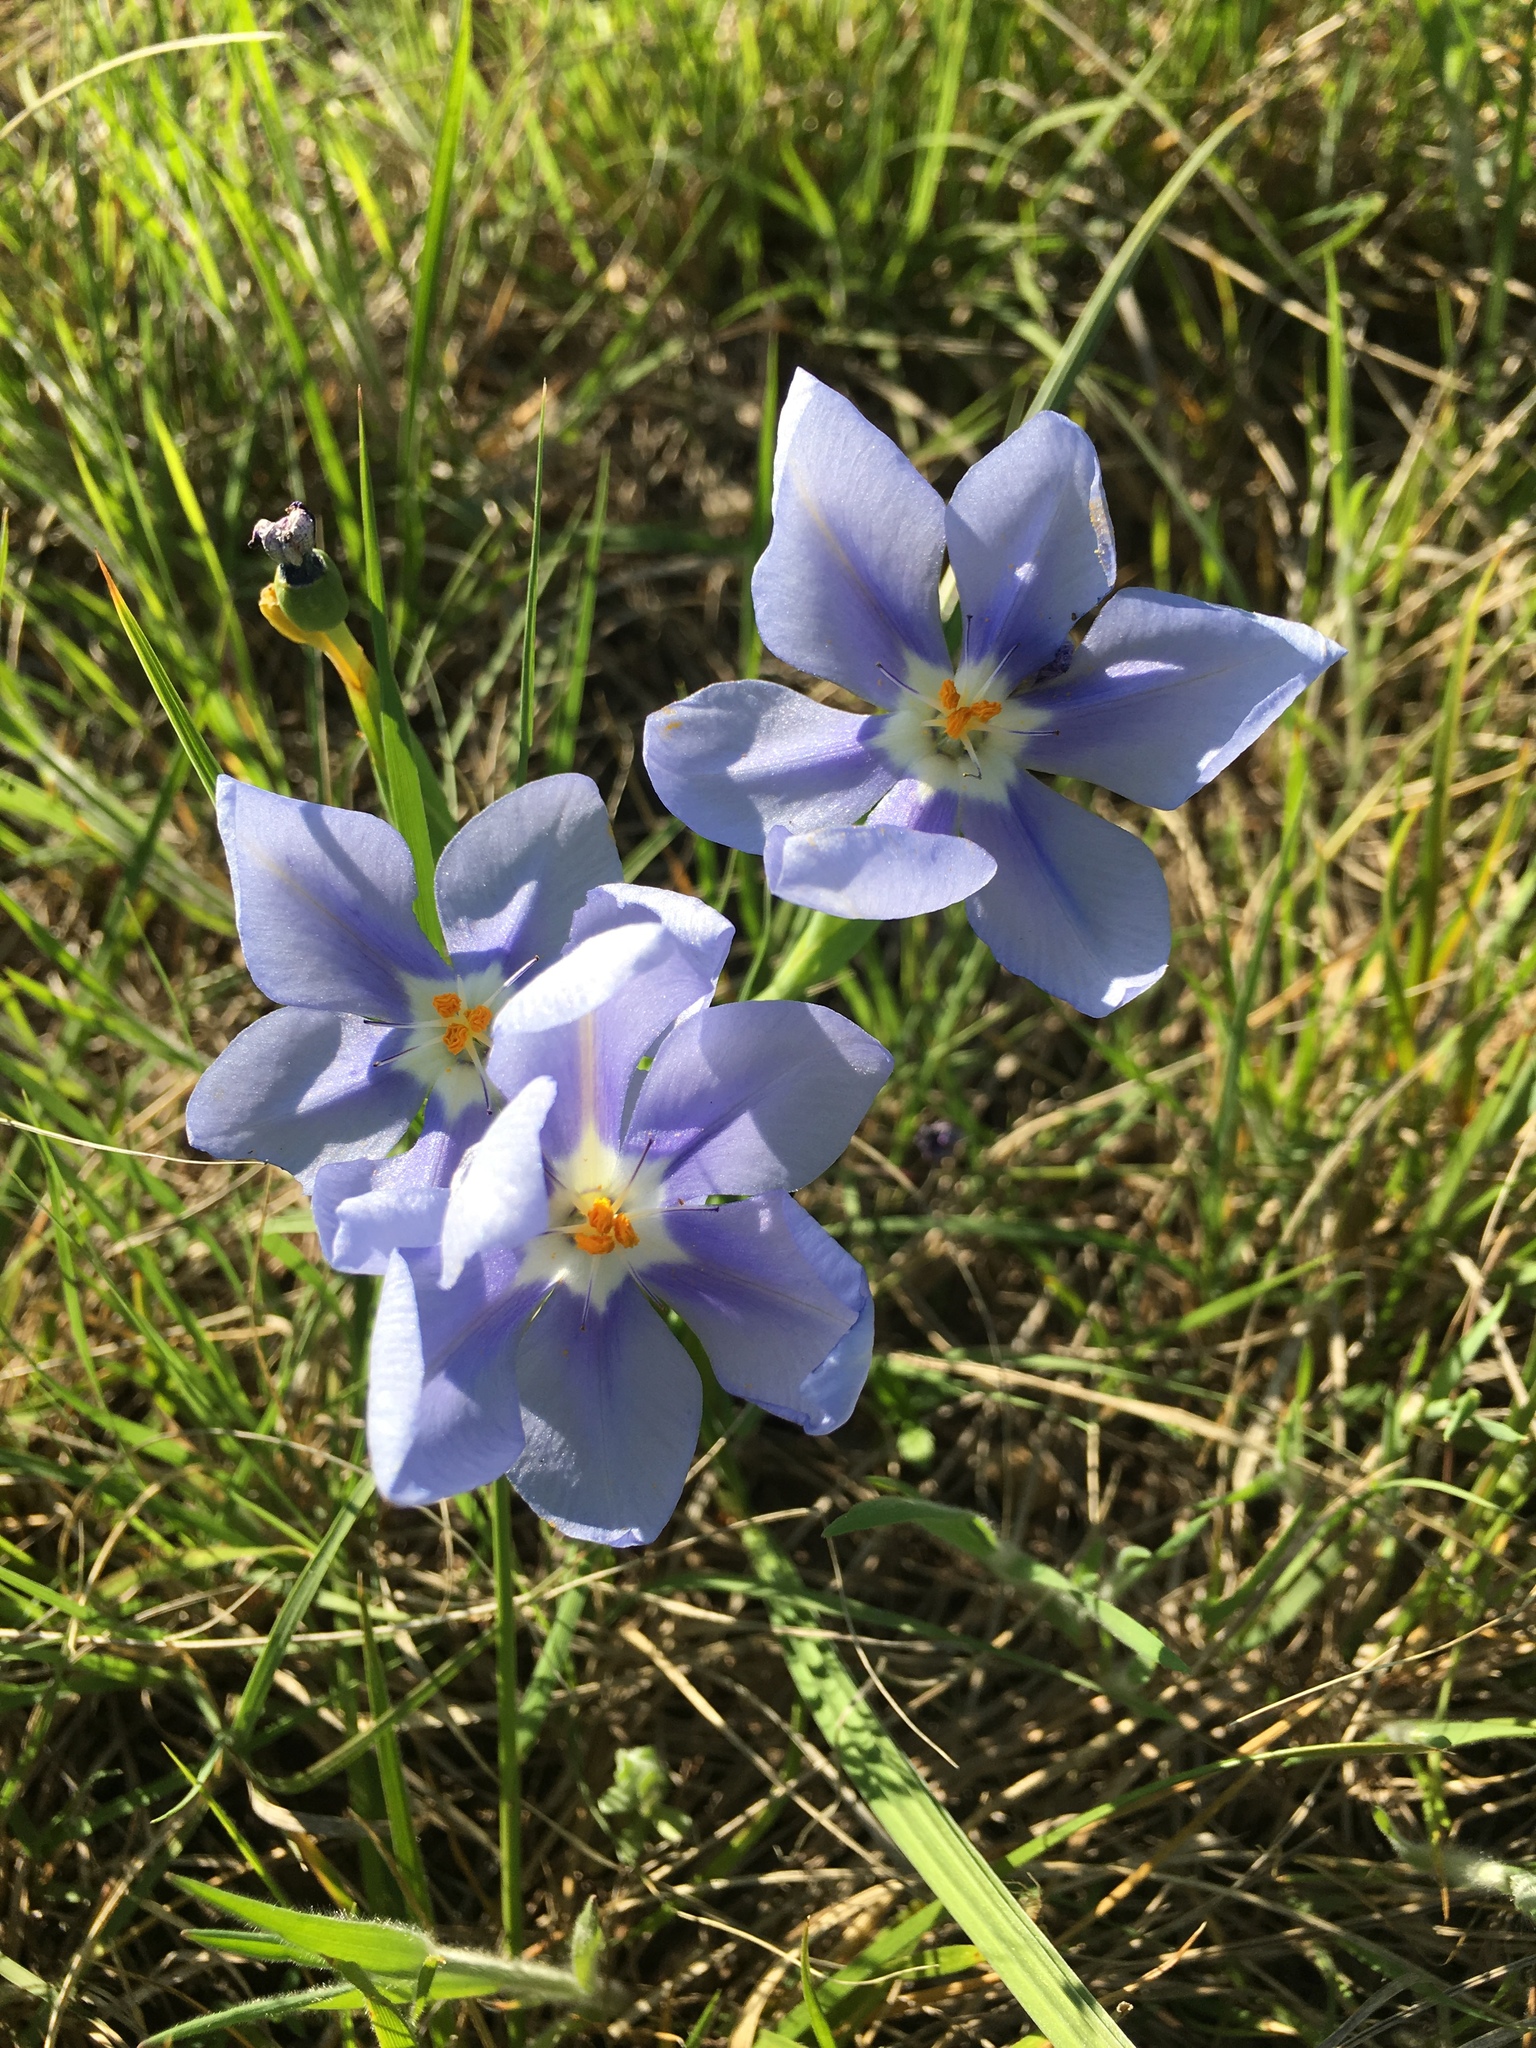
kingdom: Plantae
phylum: Tracheophyta
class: Liliopsida
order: Asparagales
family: Iridaceae
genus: Nemastylis
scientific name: Nemastylis geminiflora
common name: Prairie celestial
